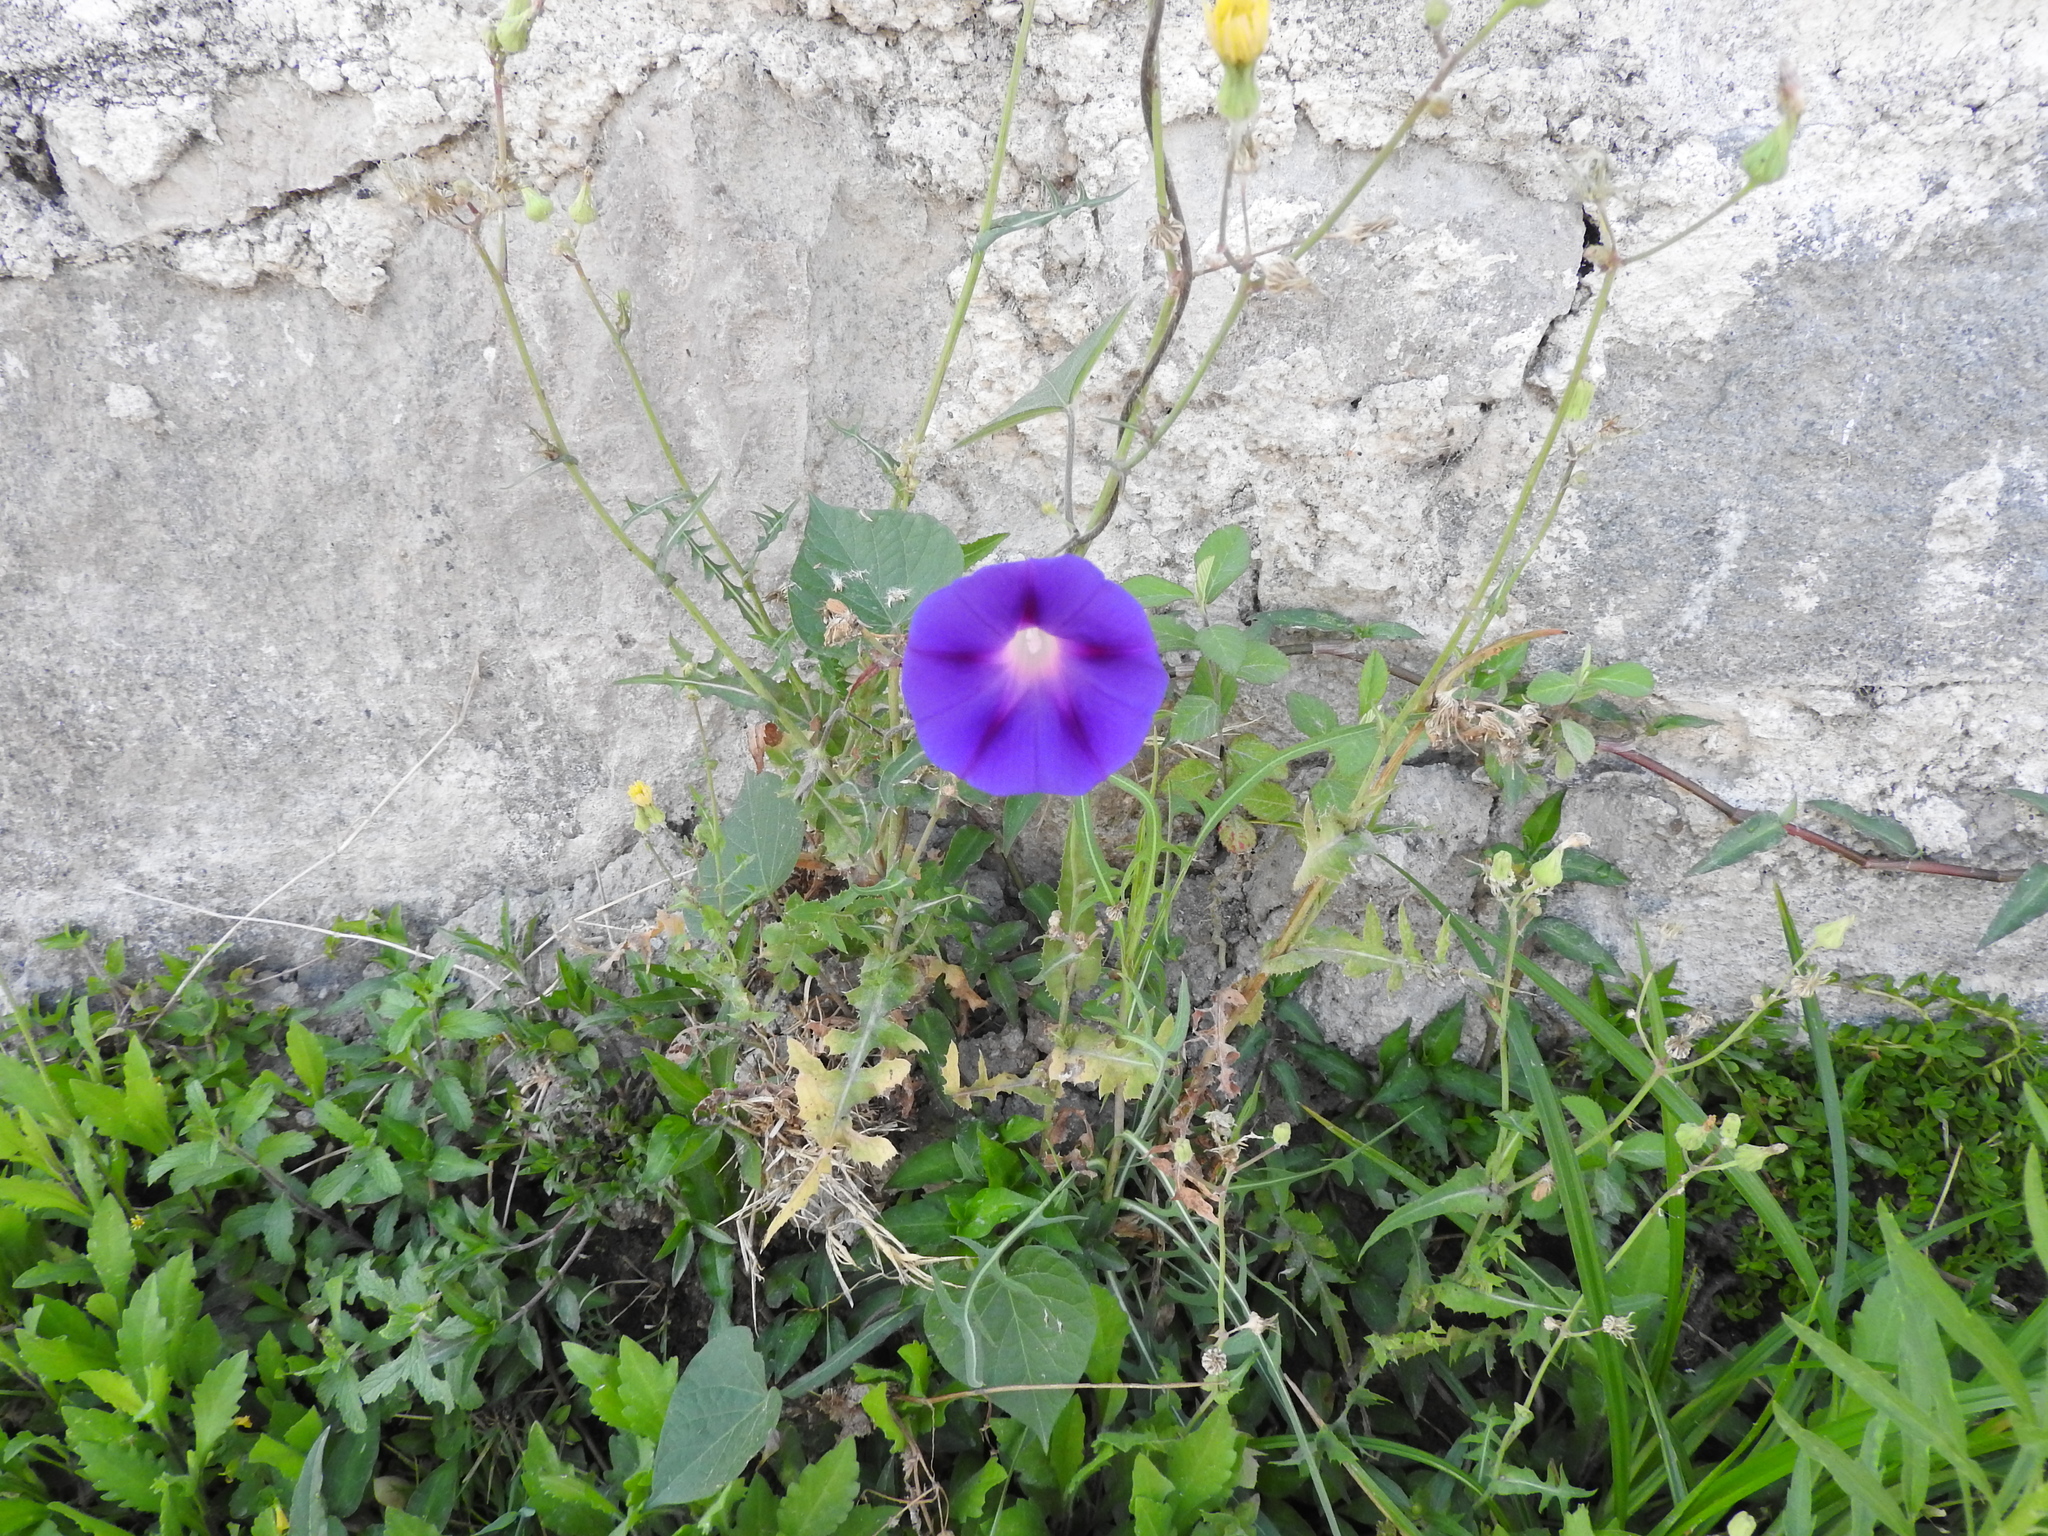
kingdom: Plantae
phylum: Tracheophyta
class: Magnoliopsida
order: Solanales
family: Convolvulaceae
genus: Ipomoea
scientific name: Ipomoea purpurea
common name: Common morning-glory
